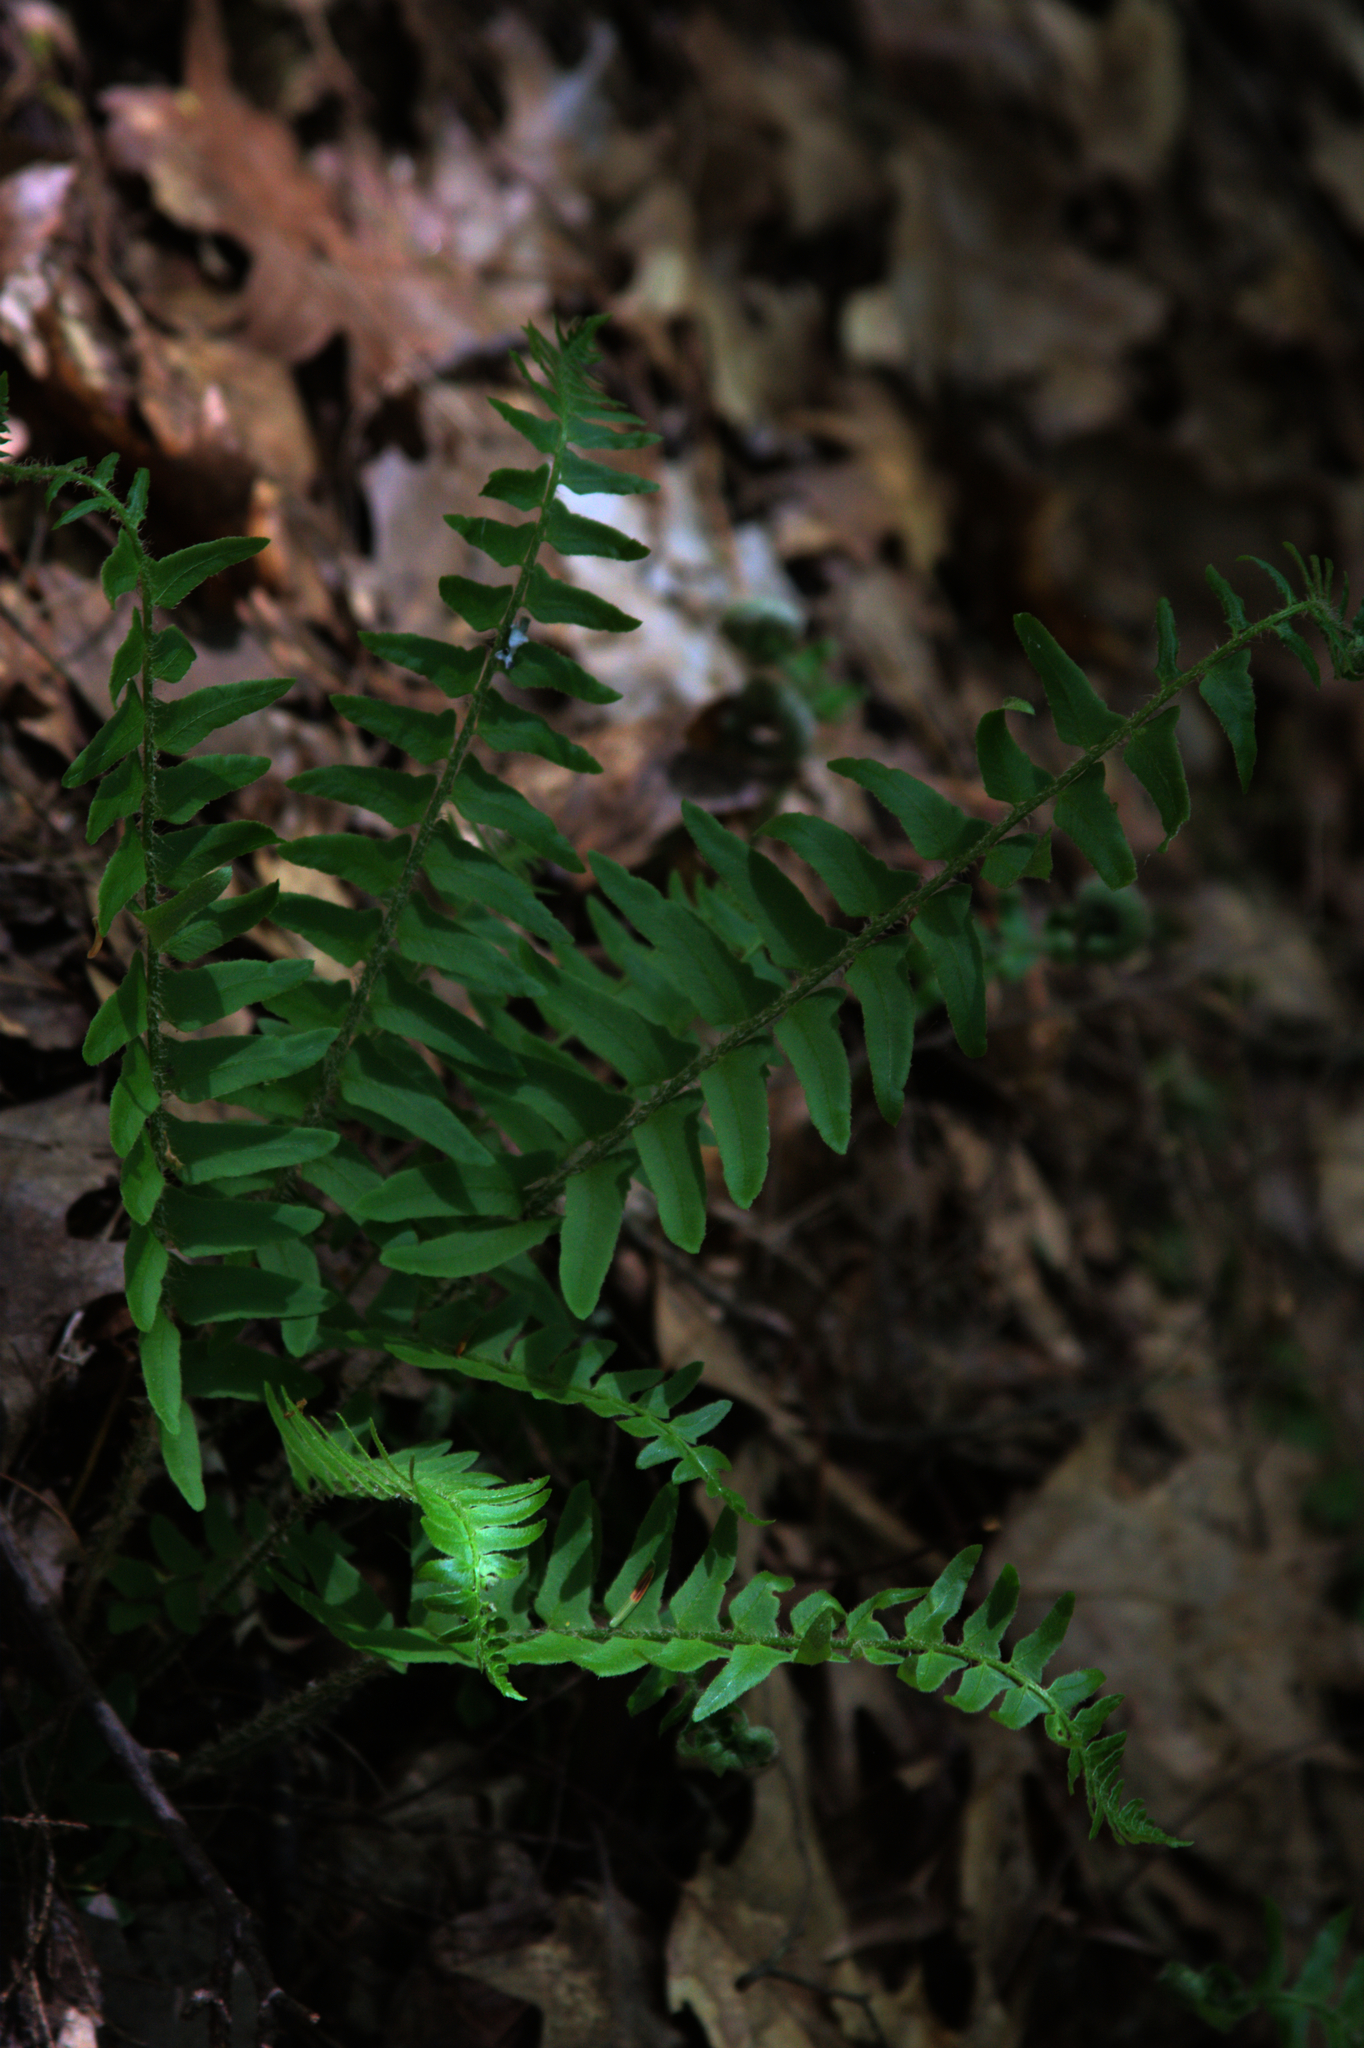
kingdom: Plantae
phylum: Tracheophyta
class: Polypodiopsida
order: Polypodiales
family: Dryopteridaceae
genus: Polystichum
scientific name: Polystichum acrostichoides
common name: Christmas fern
